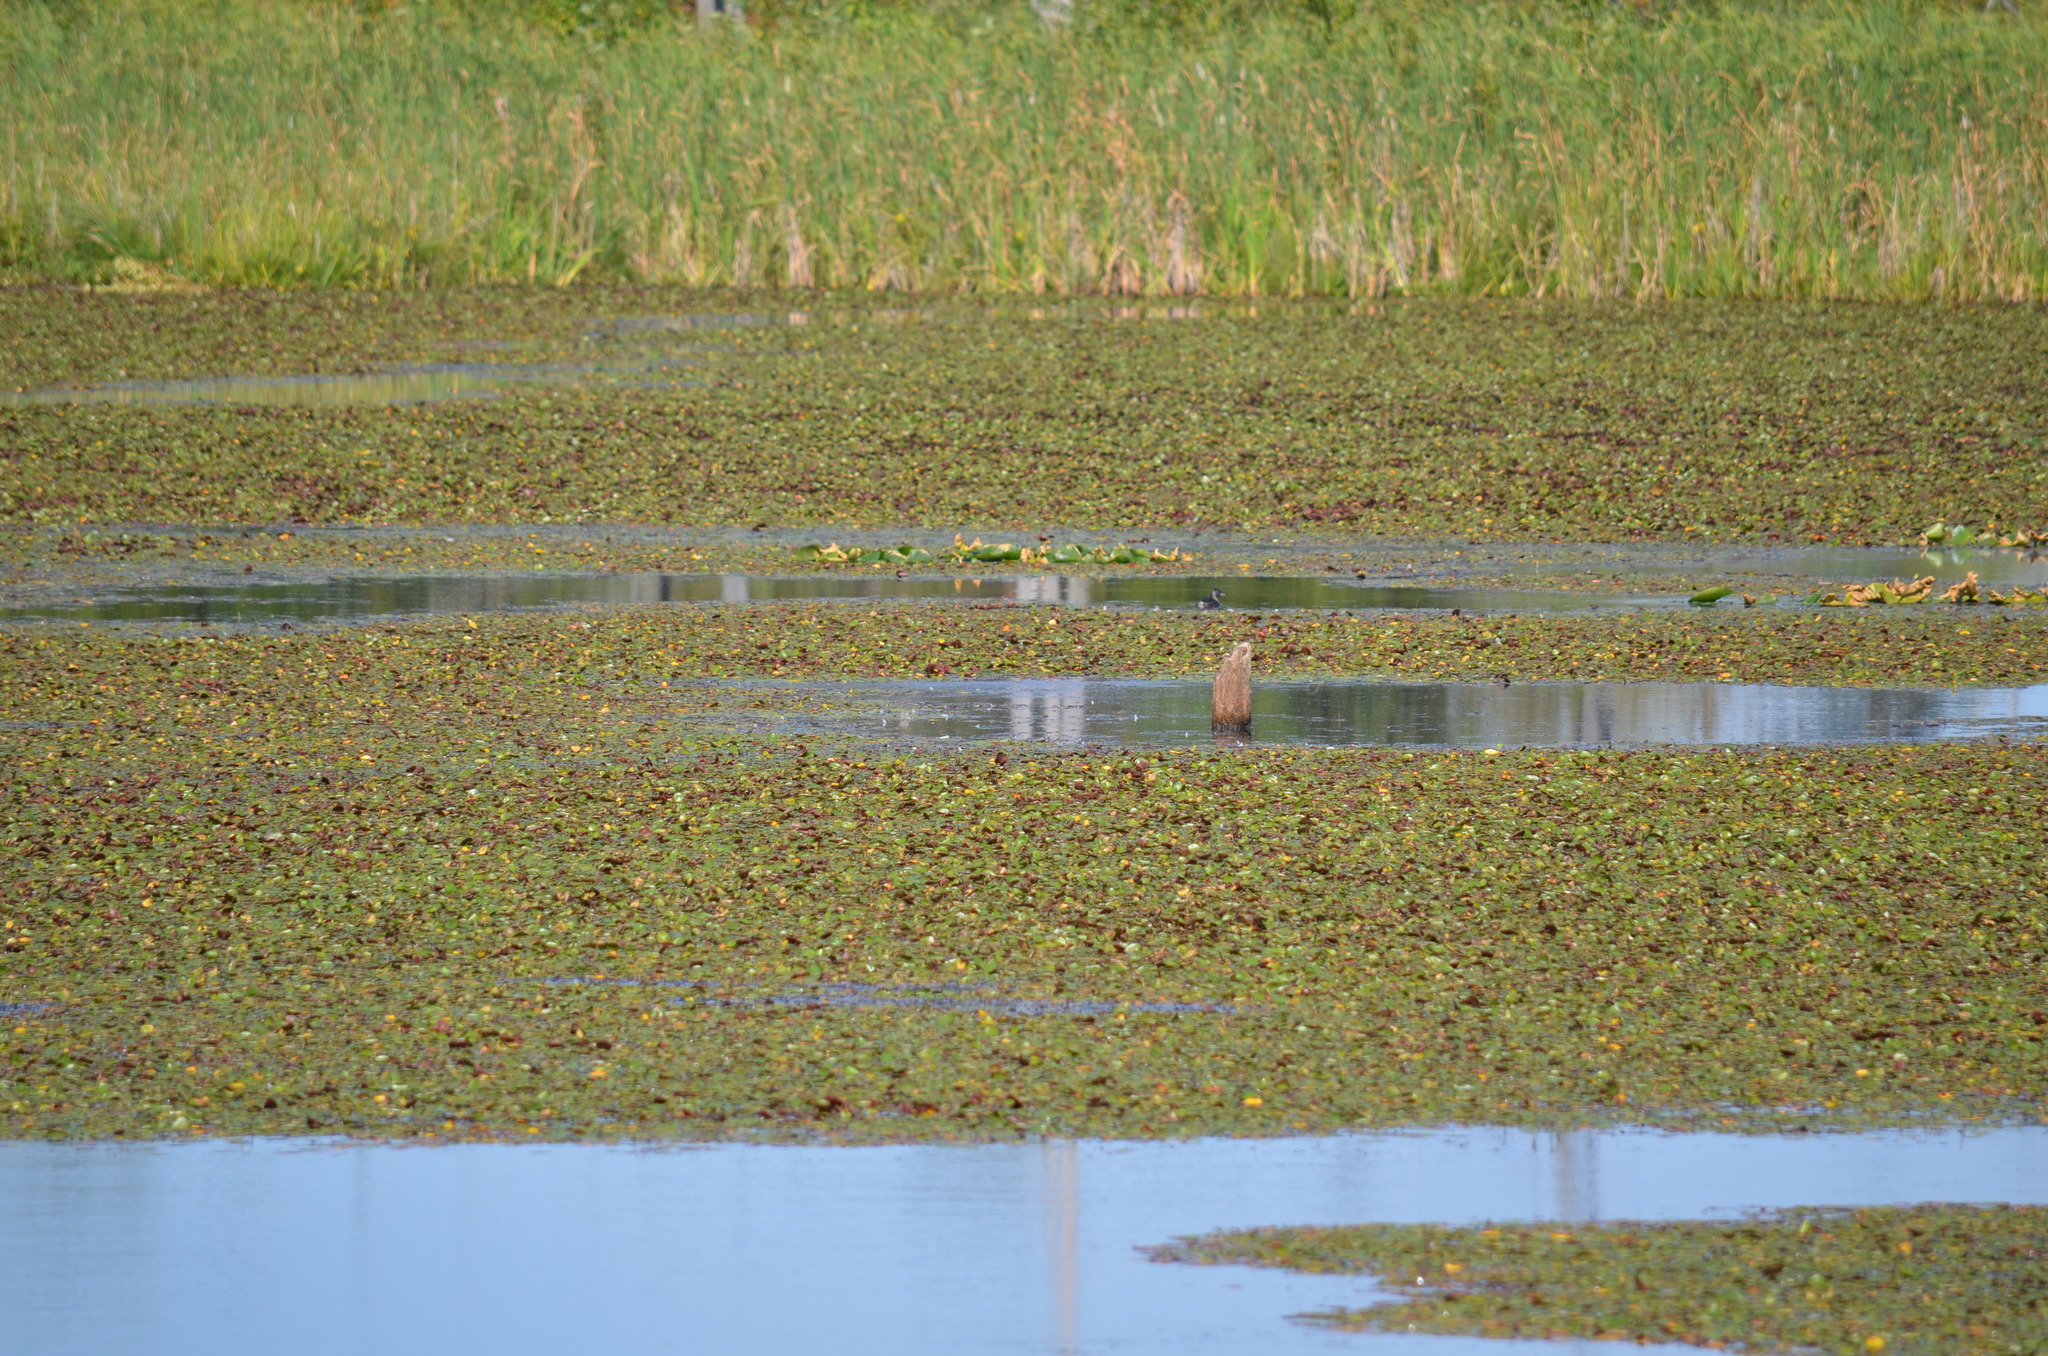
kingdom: Animalia
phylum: Chordata
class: Aves
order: Podicipediformes
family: Podicipedidae
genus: Podilymbus
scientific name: Podilymbus podiceps
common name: Pied-billed grebe
